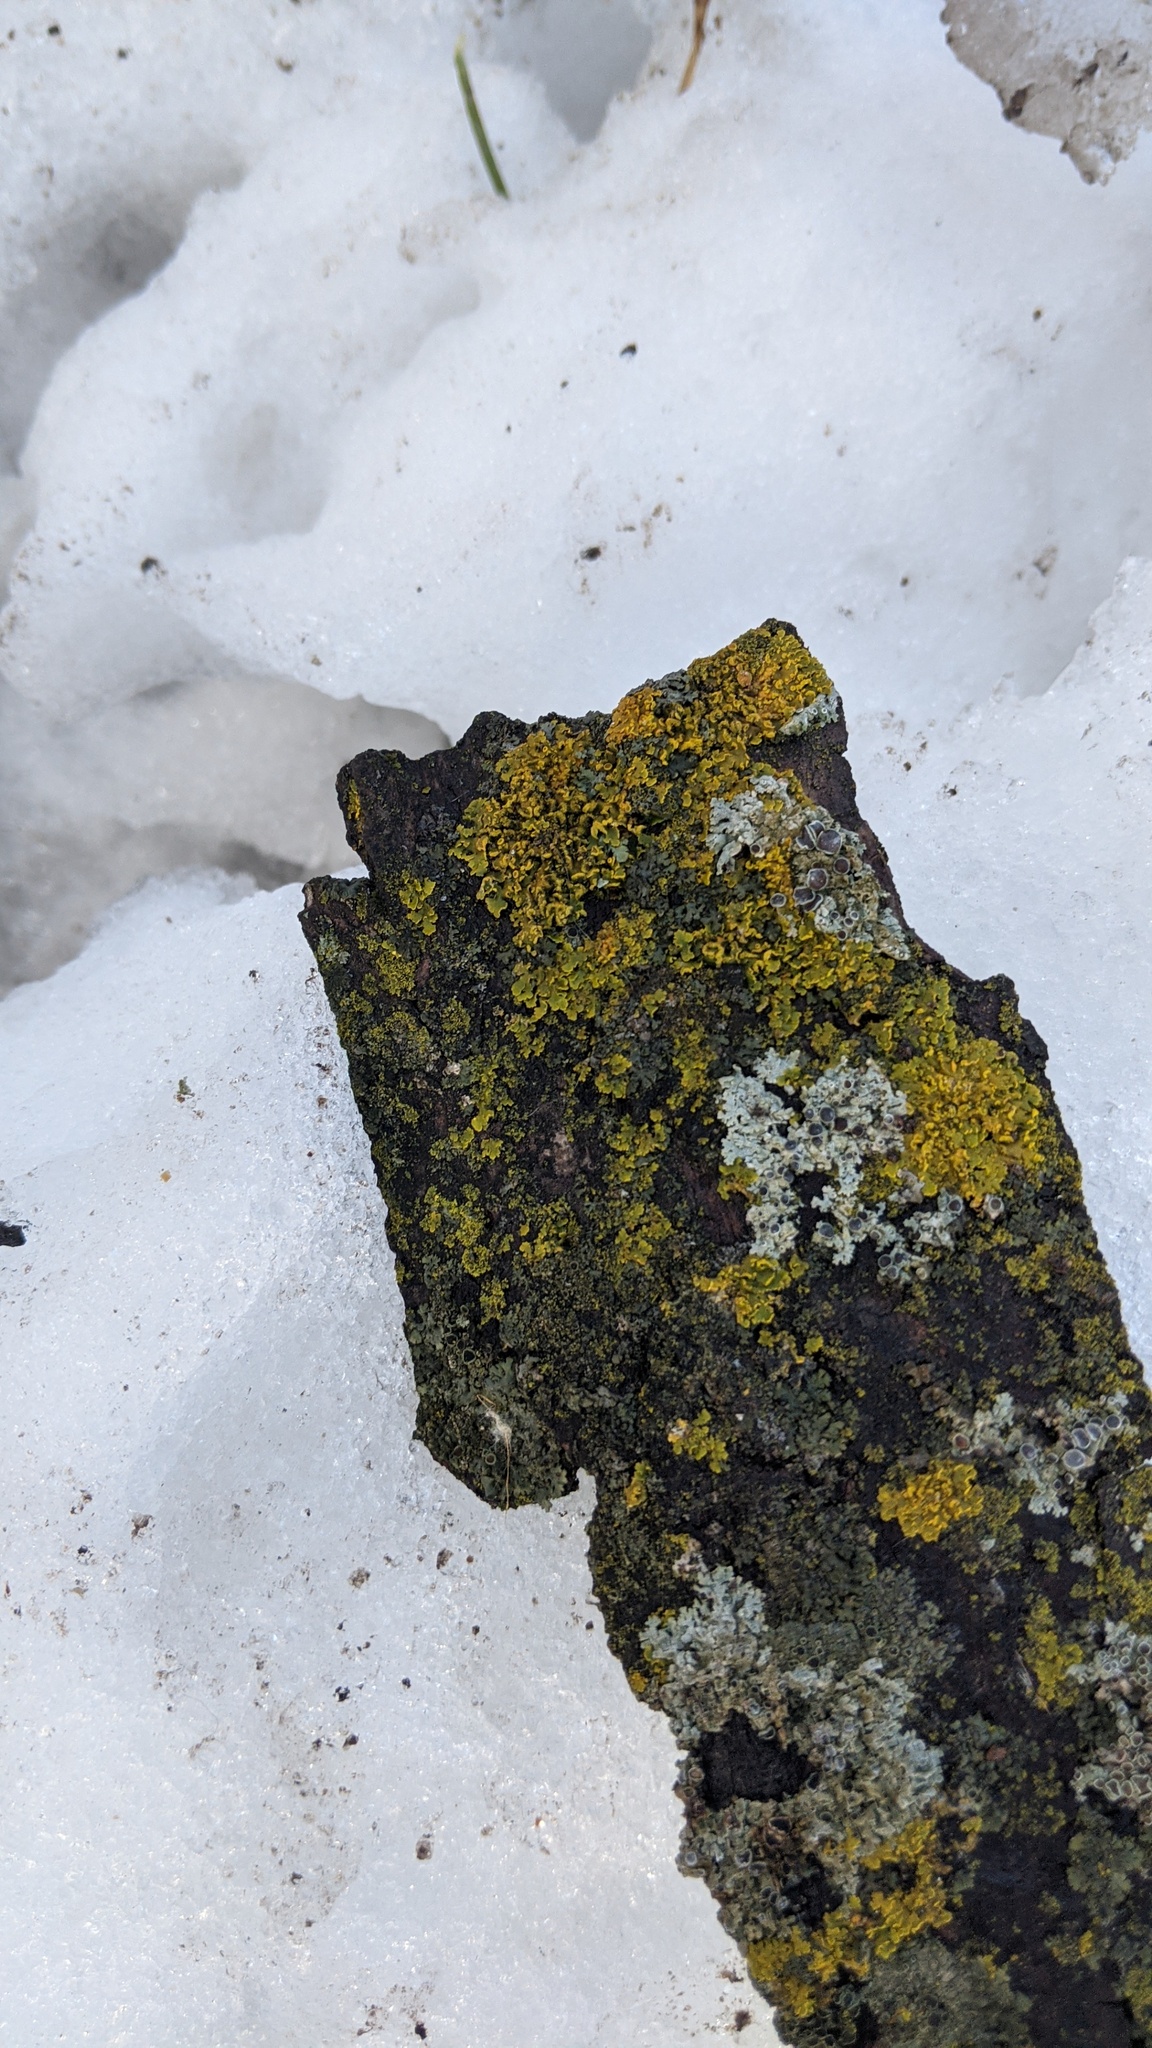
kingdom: Fungi
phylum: Ascomycota
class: Lecanoromycetes
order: Teloschistales
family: Teloschistaceae
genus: Oxneria
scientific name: Oxneria fallax
